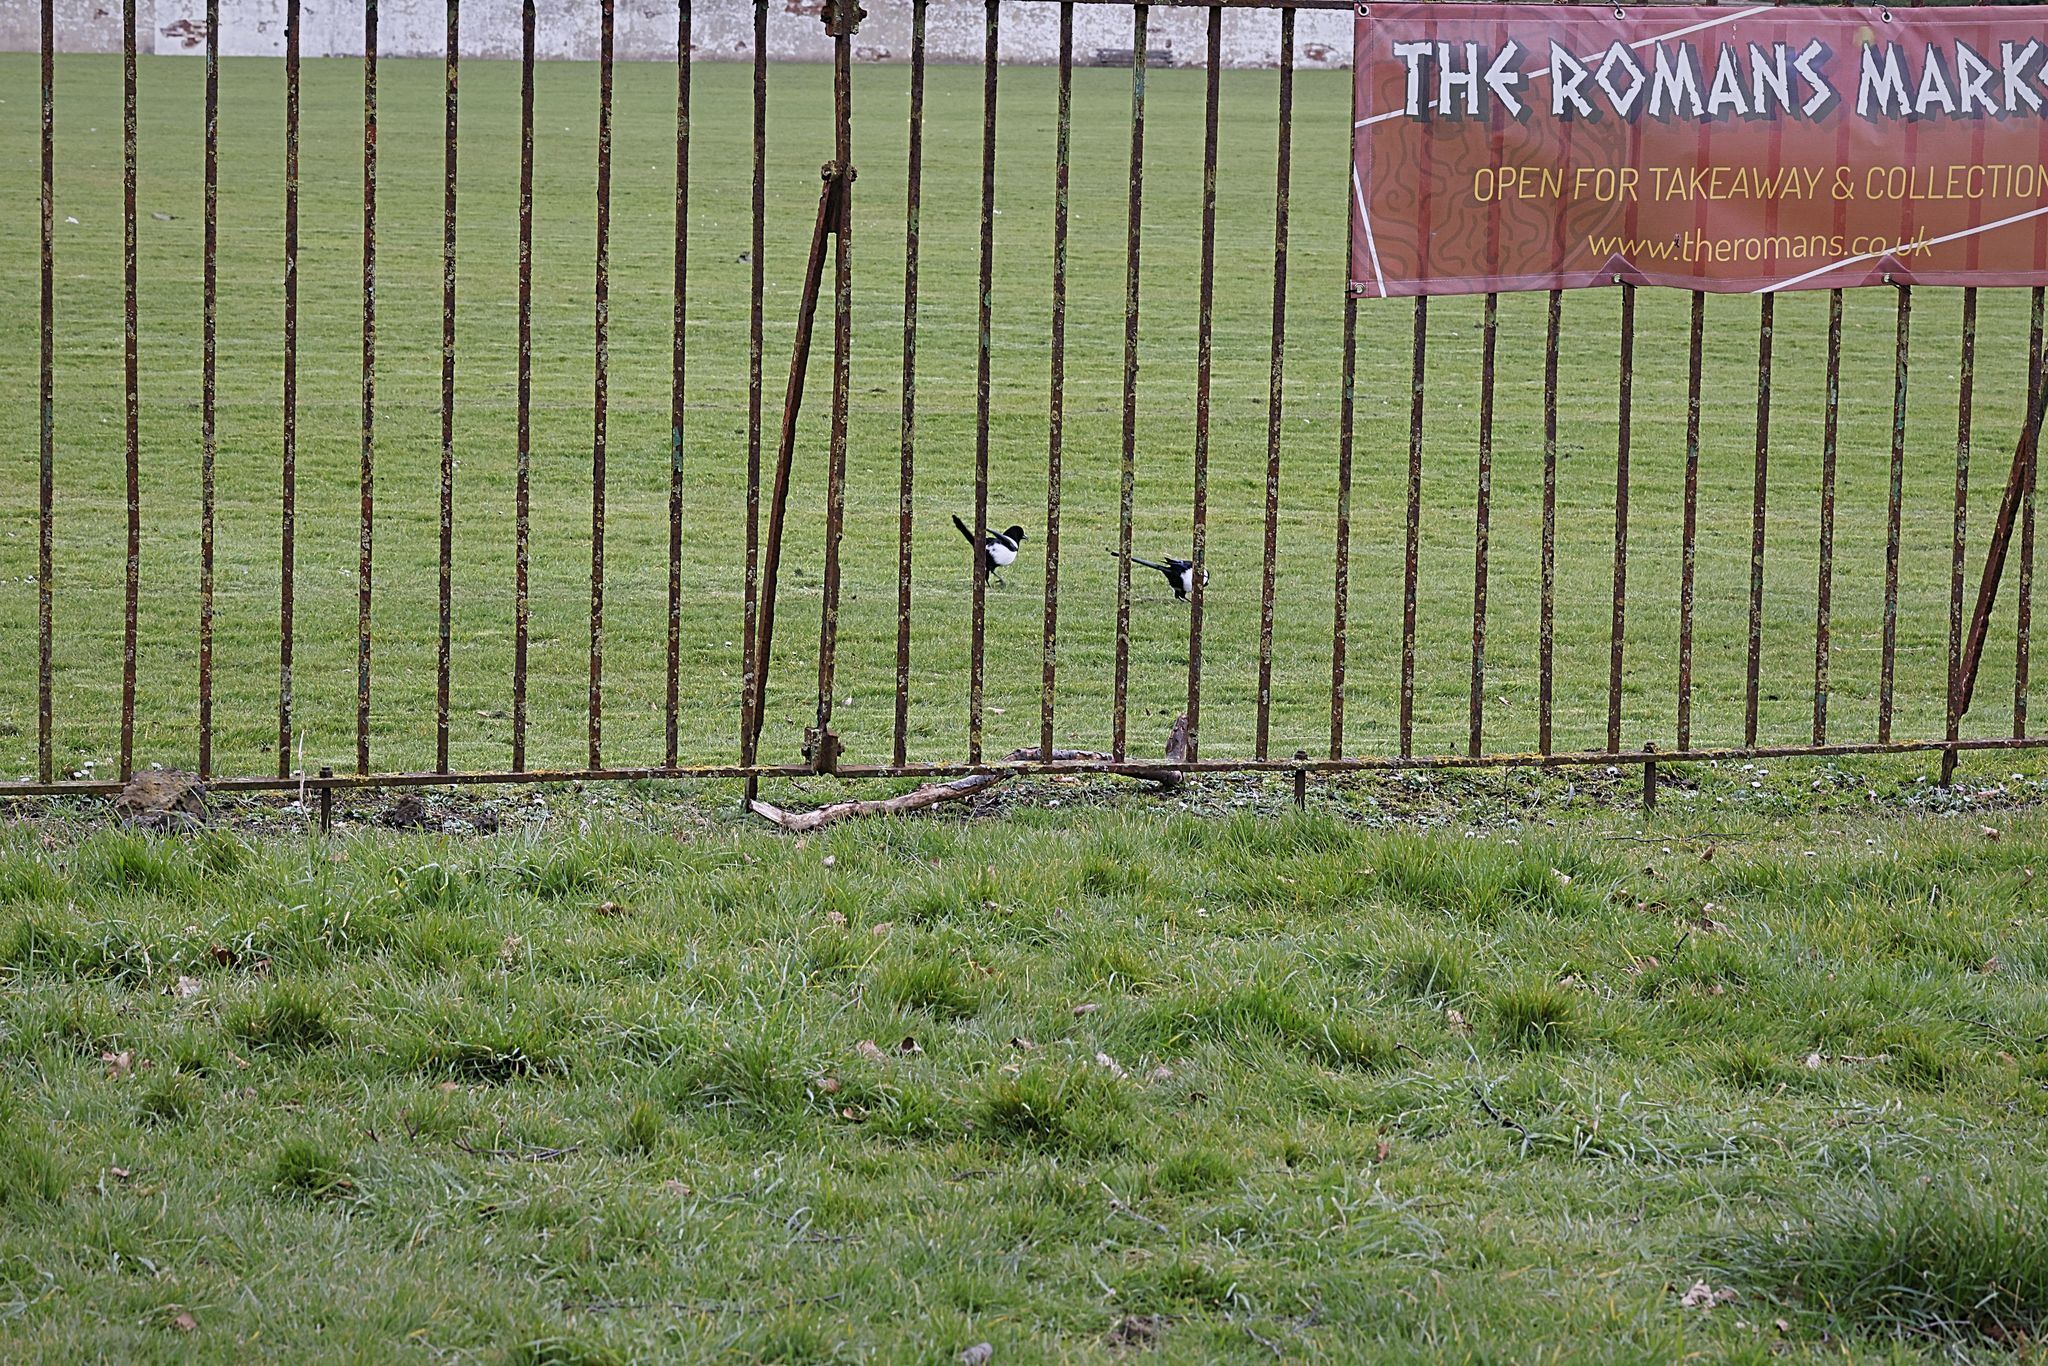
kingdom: Animalia
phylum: Chordata
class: Aves
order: Passeriformes
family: Corvidae
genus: Pica
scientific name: Pica pica
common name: Eurasian magpie
